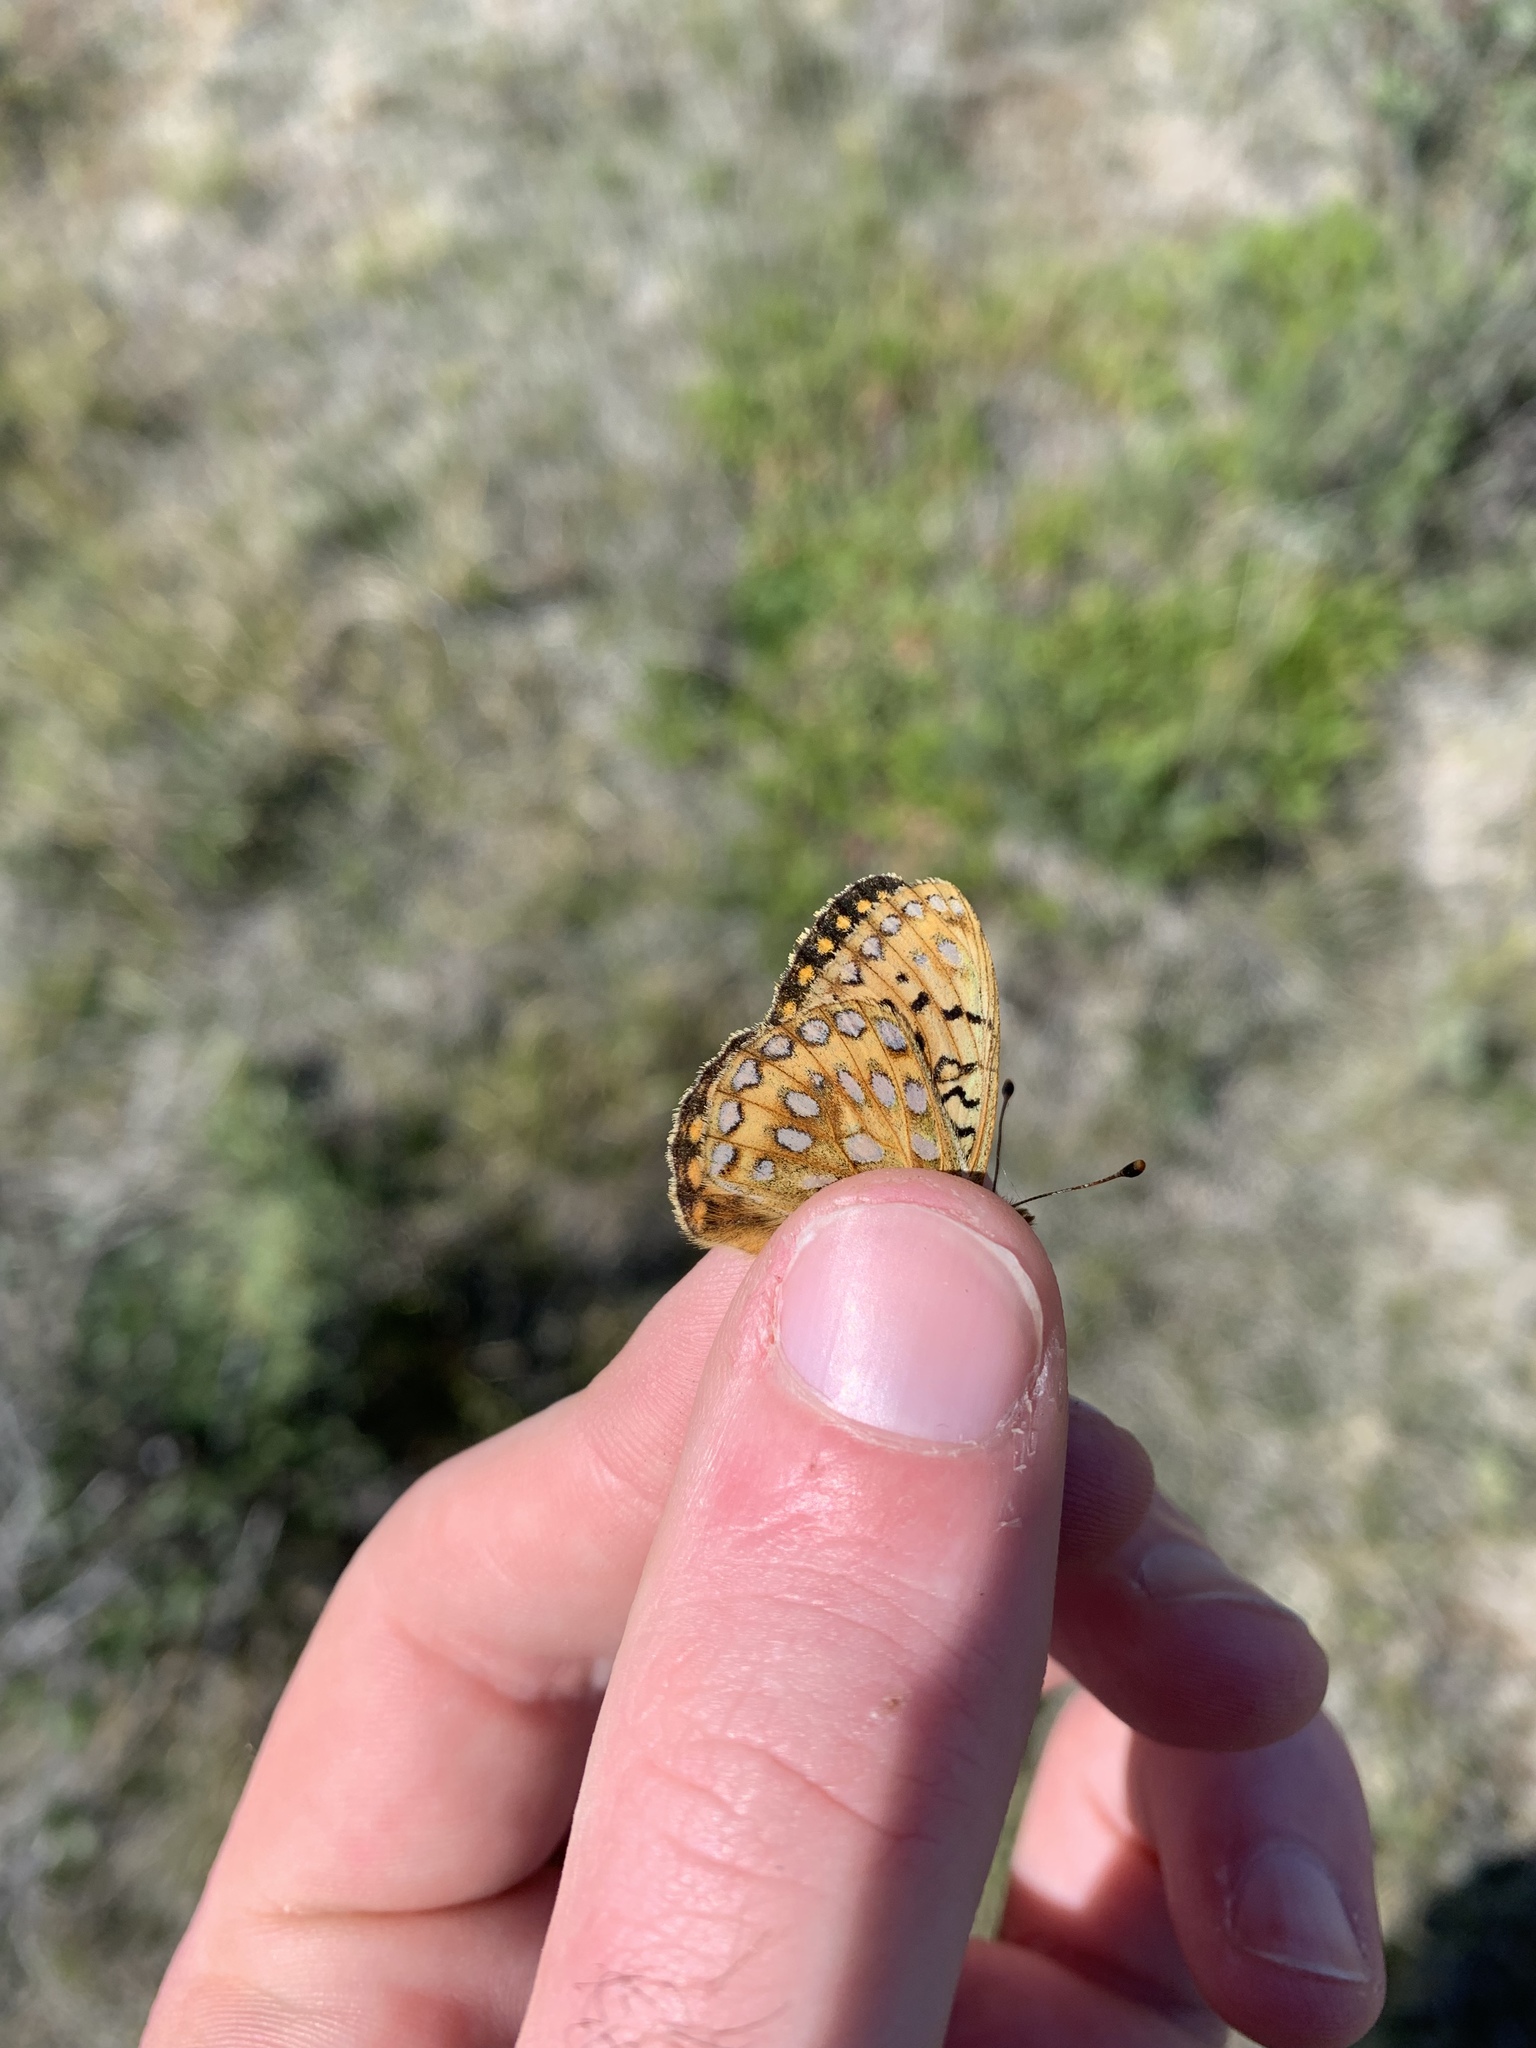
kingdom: Animalia
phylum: Arthropoda
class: Insecta
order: Lepidoptera
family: Nymphalidae
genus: Speyeria
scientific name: Speyeria mormonia
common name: Mormon fritillary
